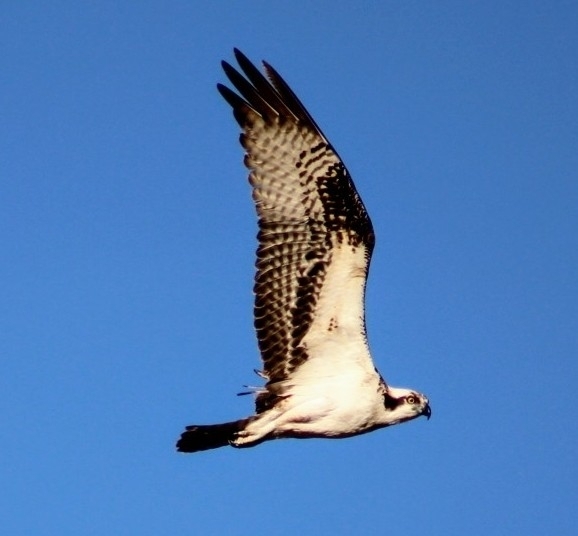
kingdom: Animalia
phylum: Chordata
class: Aves
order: Accipitriformes
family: Pandionidae
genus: Pandion
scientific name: Pandion haliaetus
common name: Osprey
